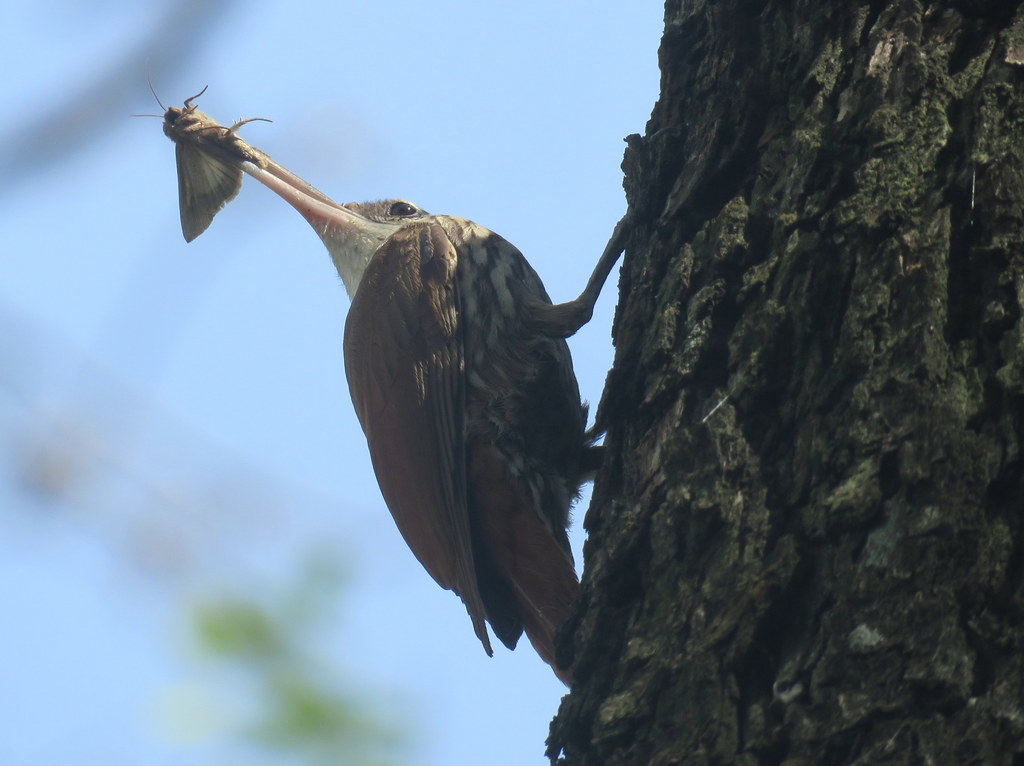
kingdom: Animalia
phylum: Chordata
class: Aves
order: Passeriformes
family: Furnariidae
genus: Lepidocolaptes
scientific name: Lepidocolaptes angustirostris
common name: Narrow-billed woodcreeper
